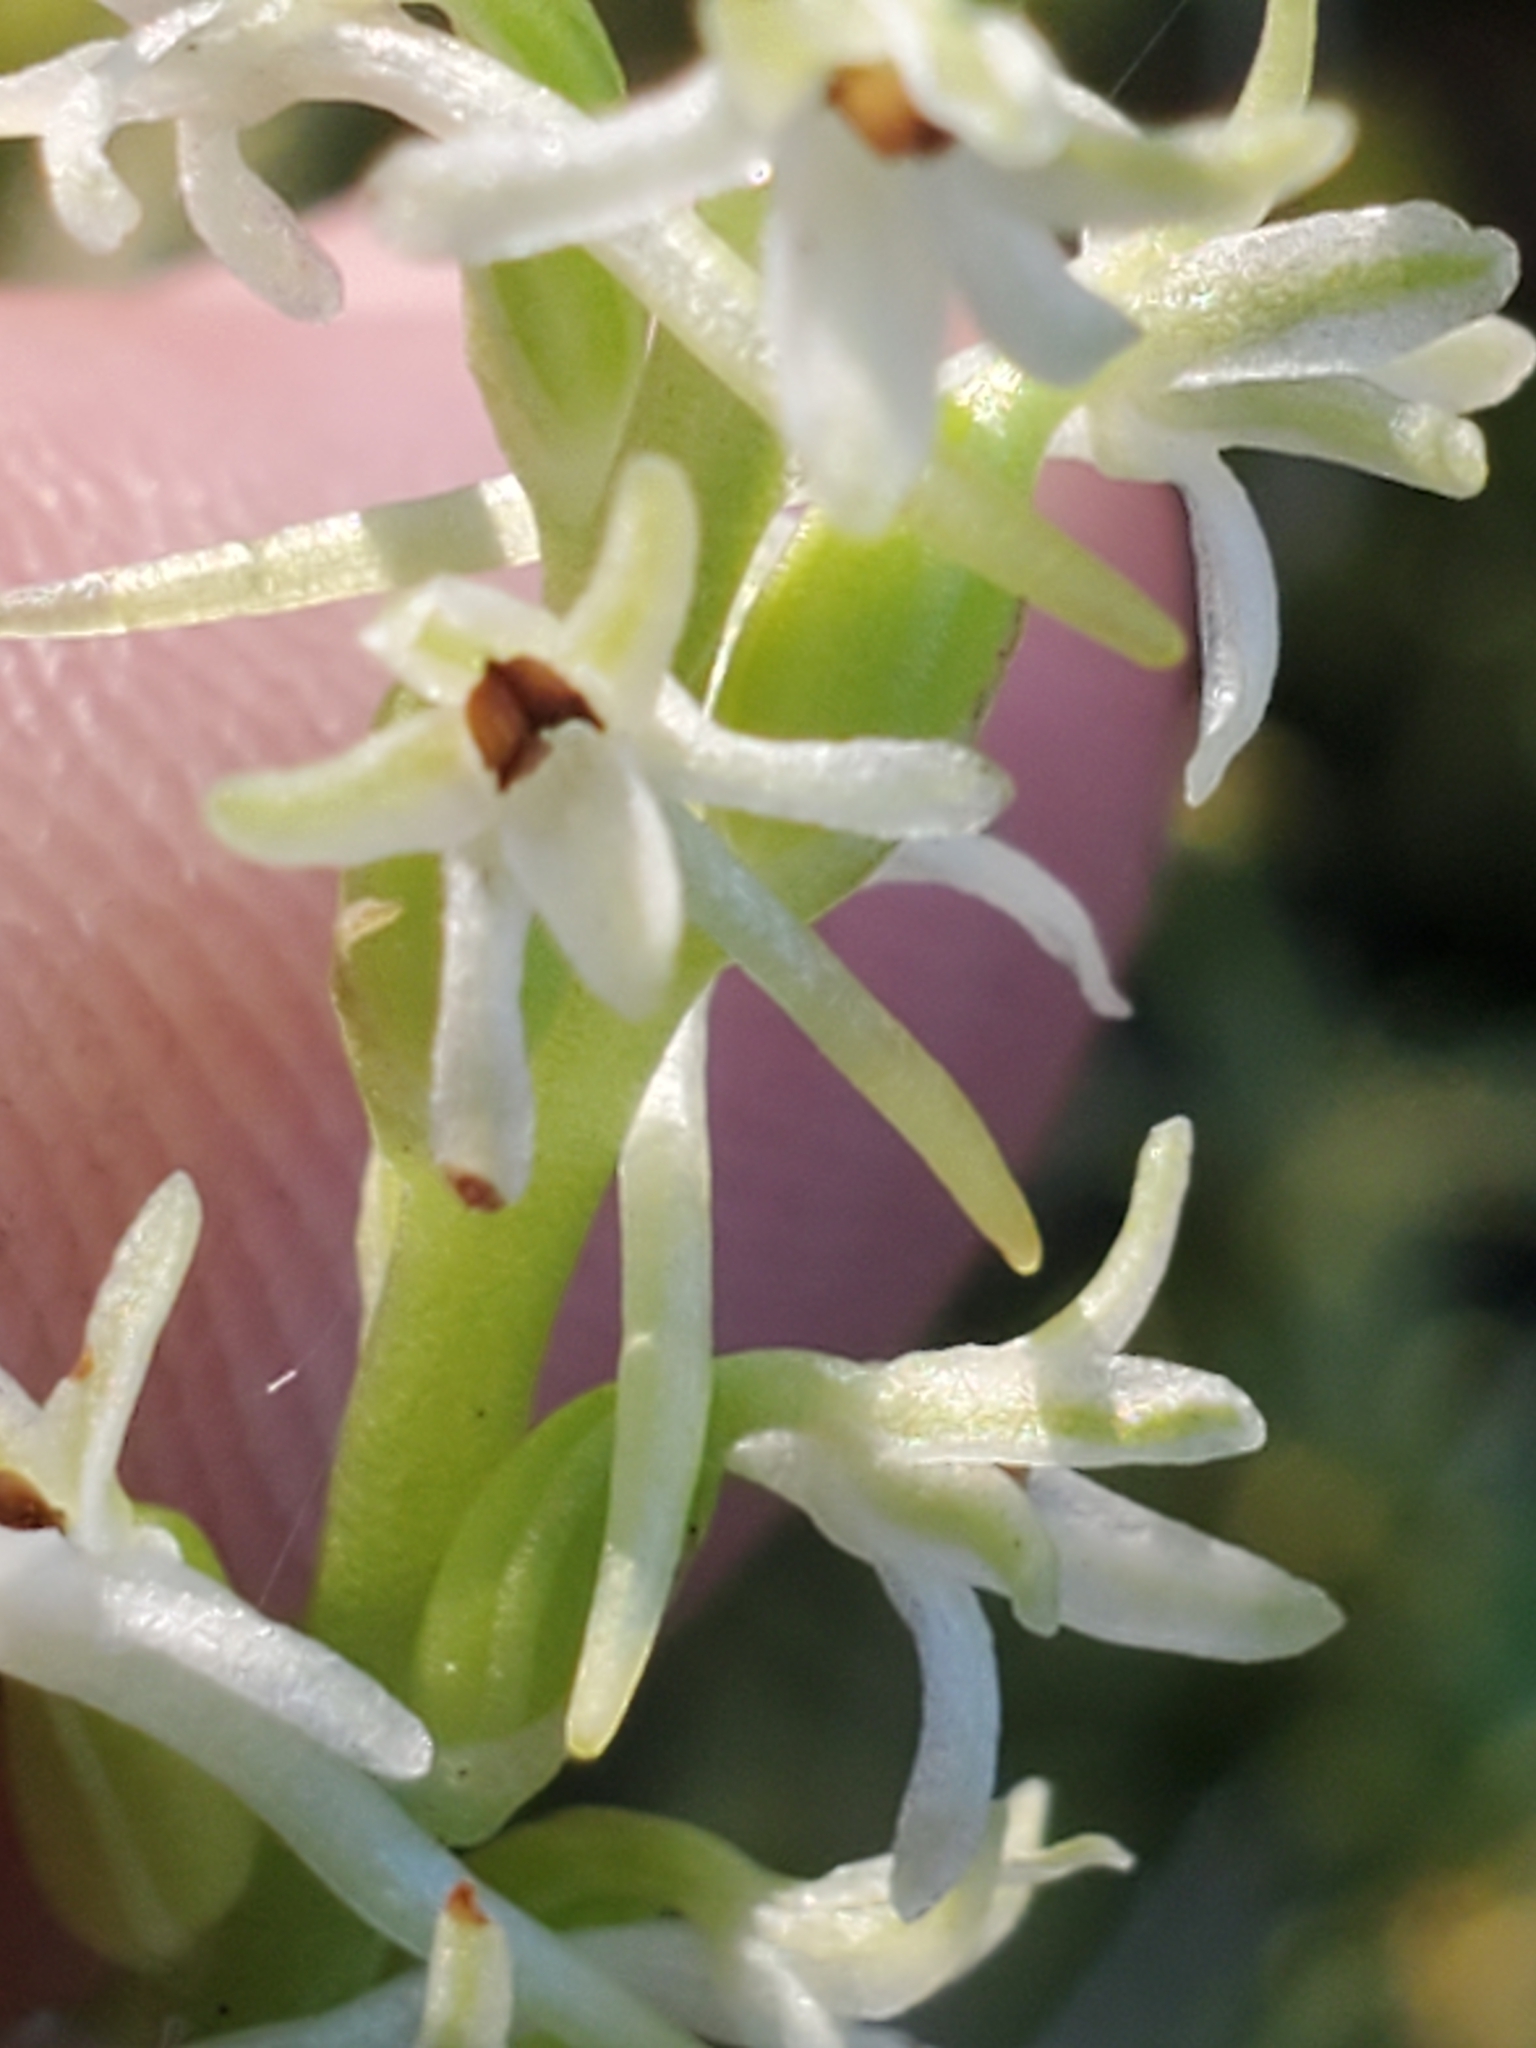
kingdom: Plantae
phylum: Tracheophyta
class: Liliopsida
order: Asparagales
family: Orchidaceae
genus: Platanthera
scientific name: Platanthera transversa
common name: Royal rein orchid
